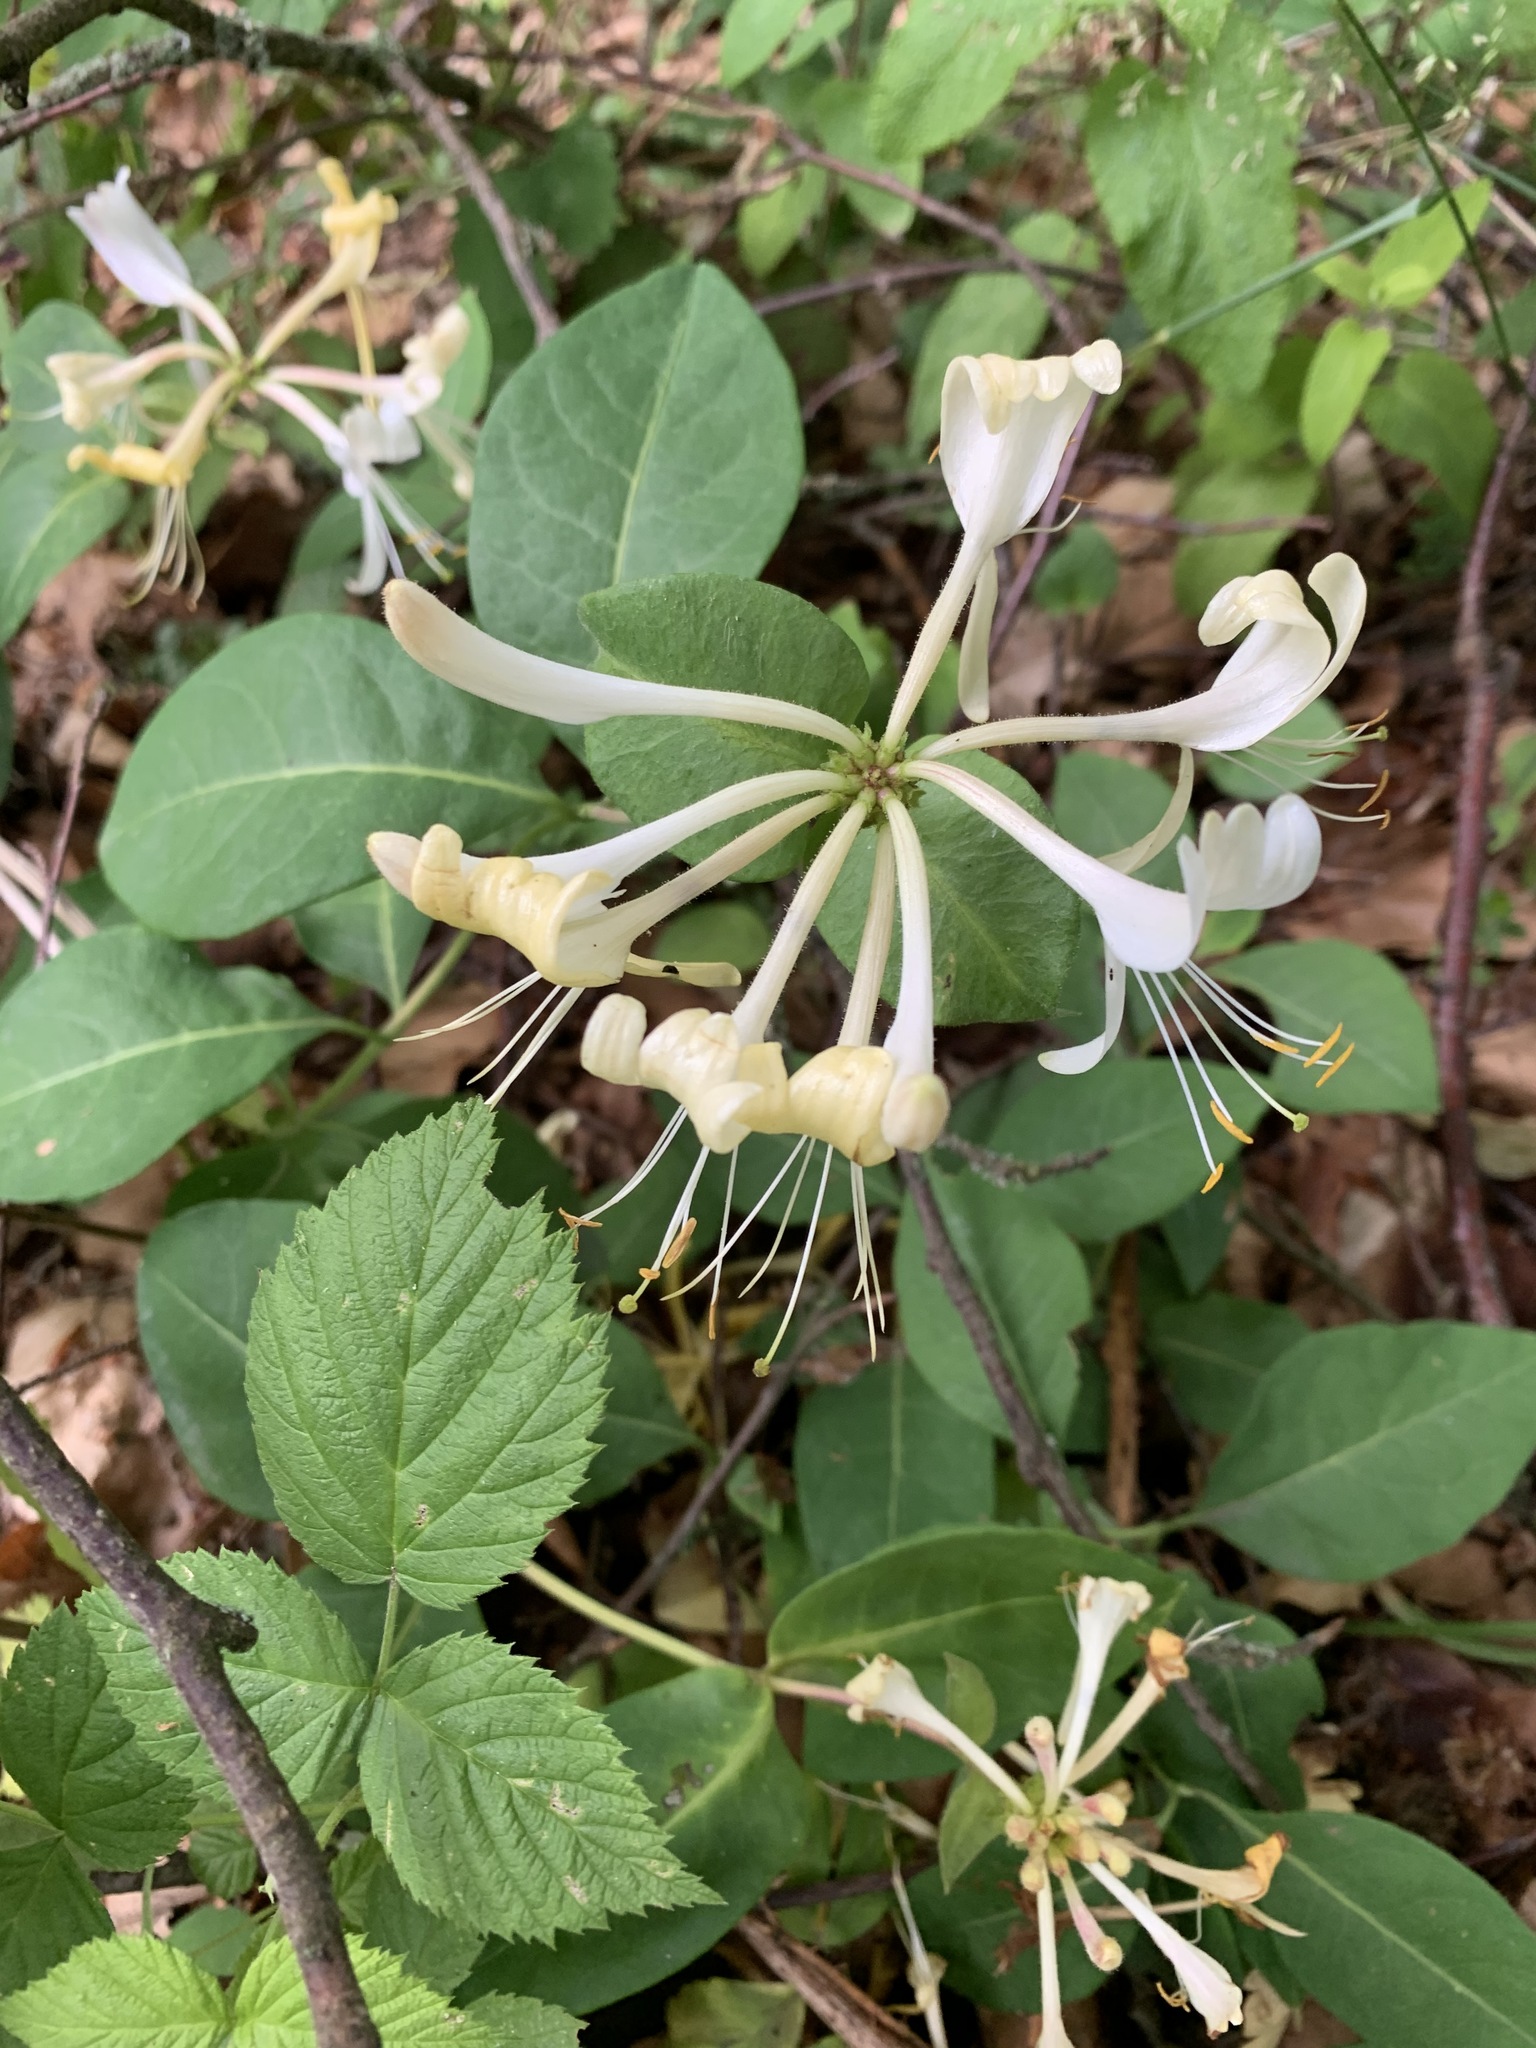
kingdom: Plantae
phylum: Tracheophyta
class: Magnoliopsida
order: Dipsacales
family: Caprifoliaceae
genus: Lonicera
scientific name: Lonicera periclymenum
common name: European honeysuckle
